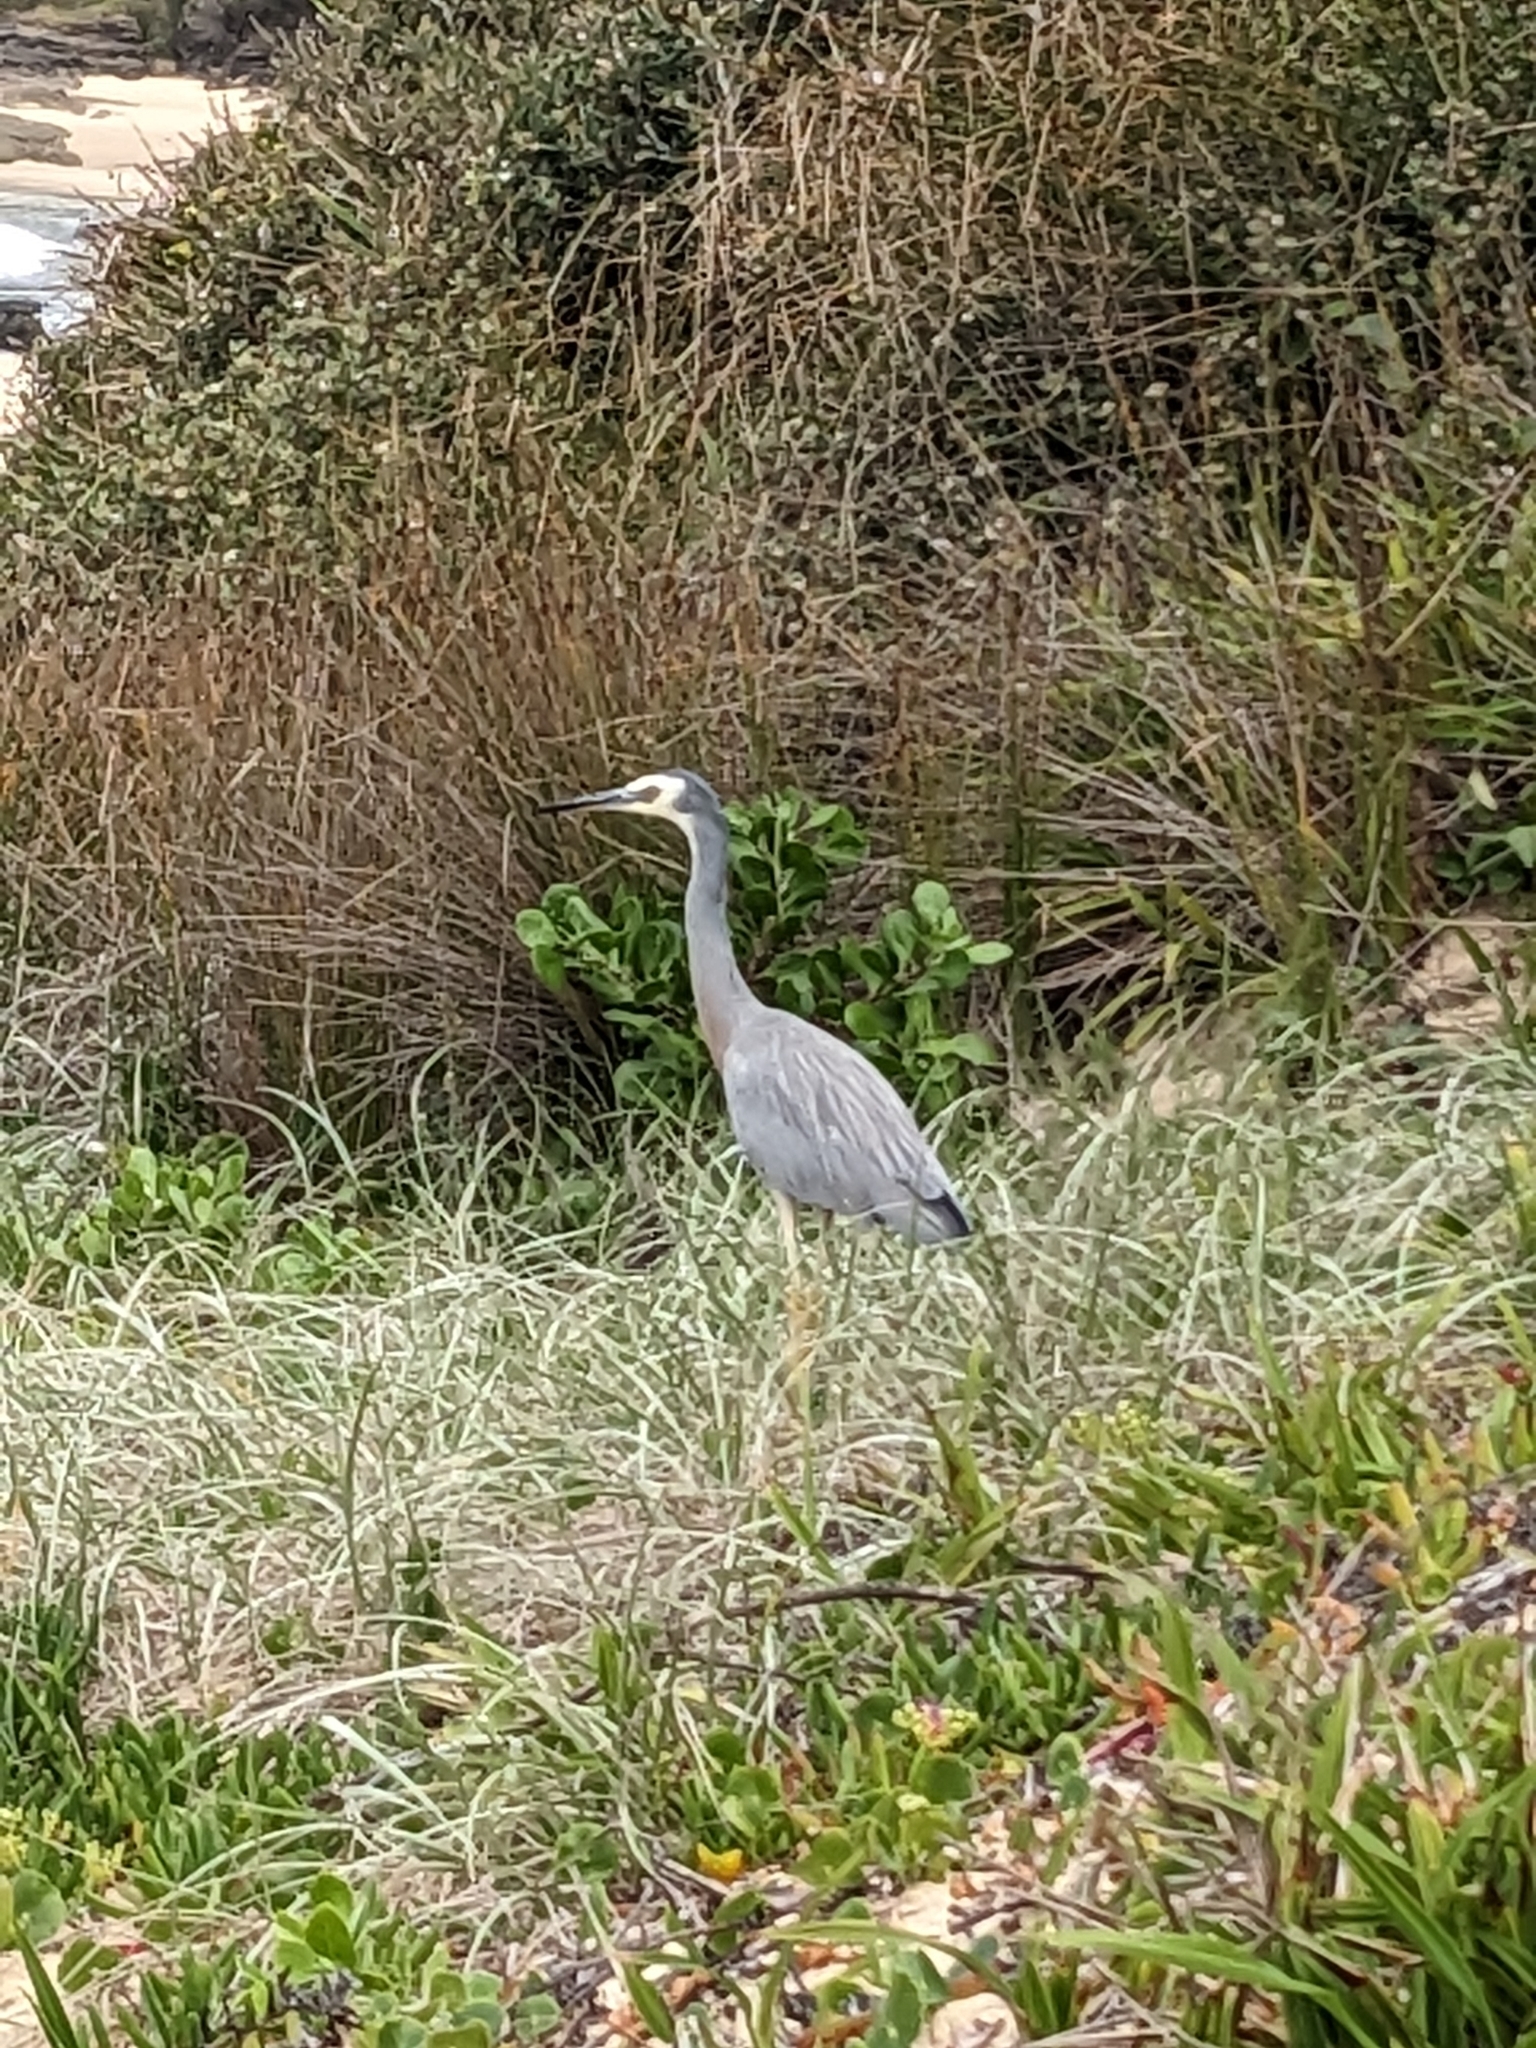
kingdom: Animalia
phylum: Chordata
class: Aves
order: Pelecaniformes
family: Ardeidae
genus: Egretta
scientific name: Egretta novaehollandiae
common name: White-faced heron
